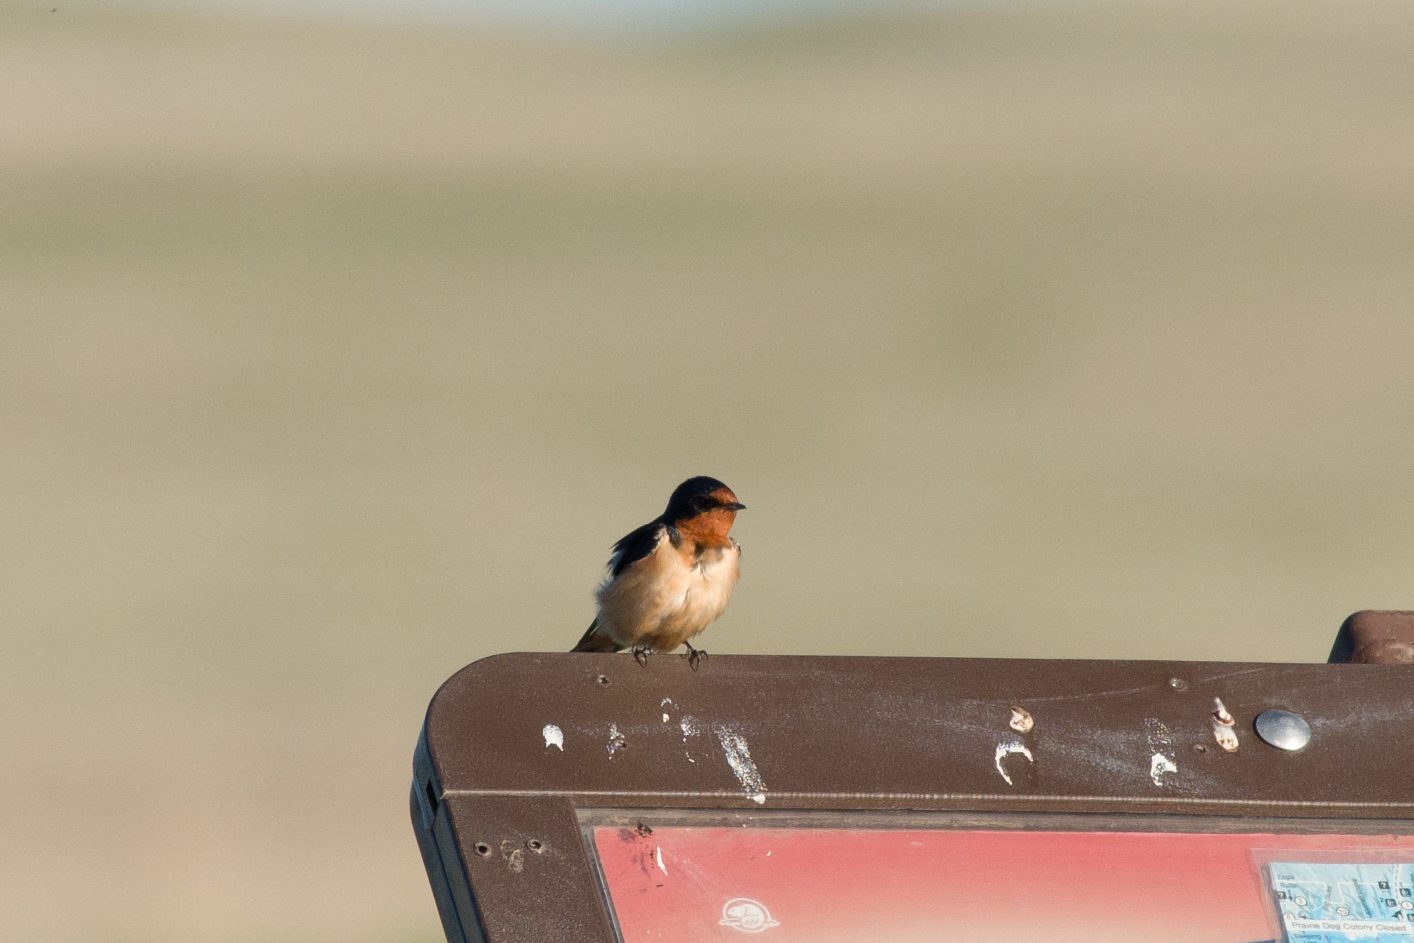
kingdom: Animalia
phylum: Chordata
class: Aves
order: Passeriformes
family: Hirundinidae
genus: Hirundo
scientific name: Hirundo rustica
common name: Barn swallow
